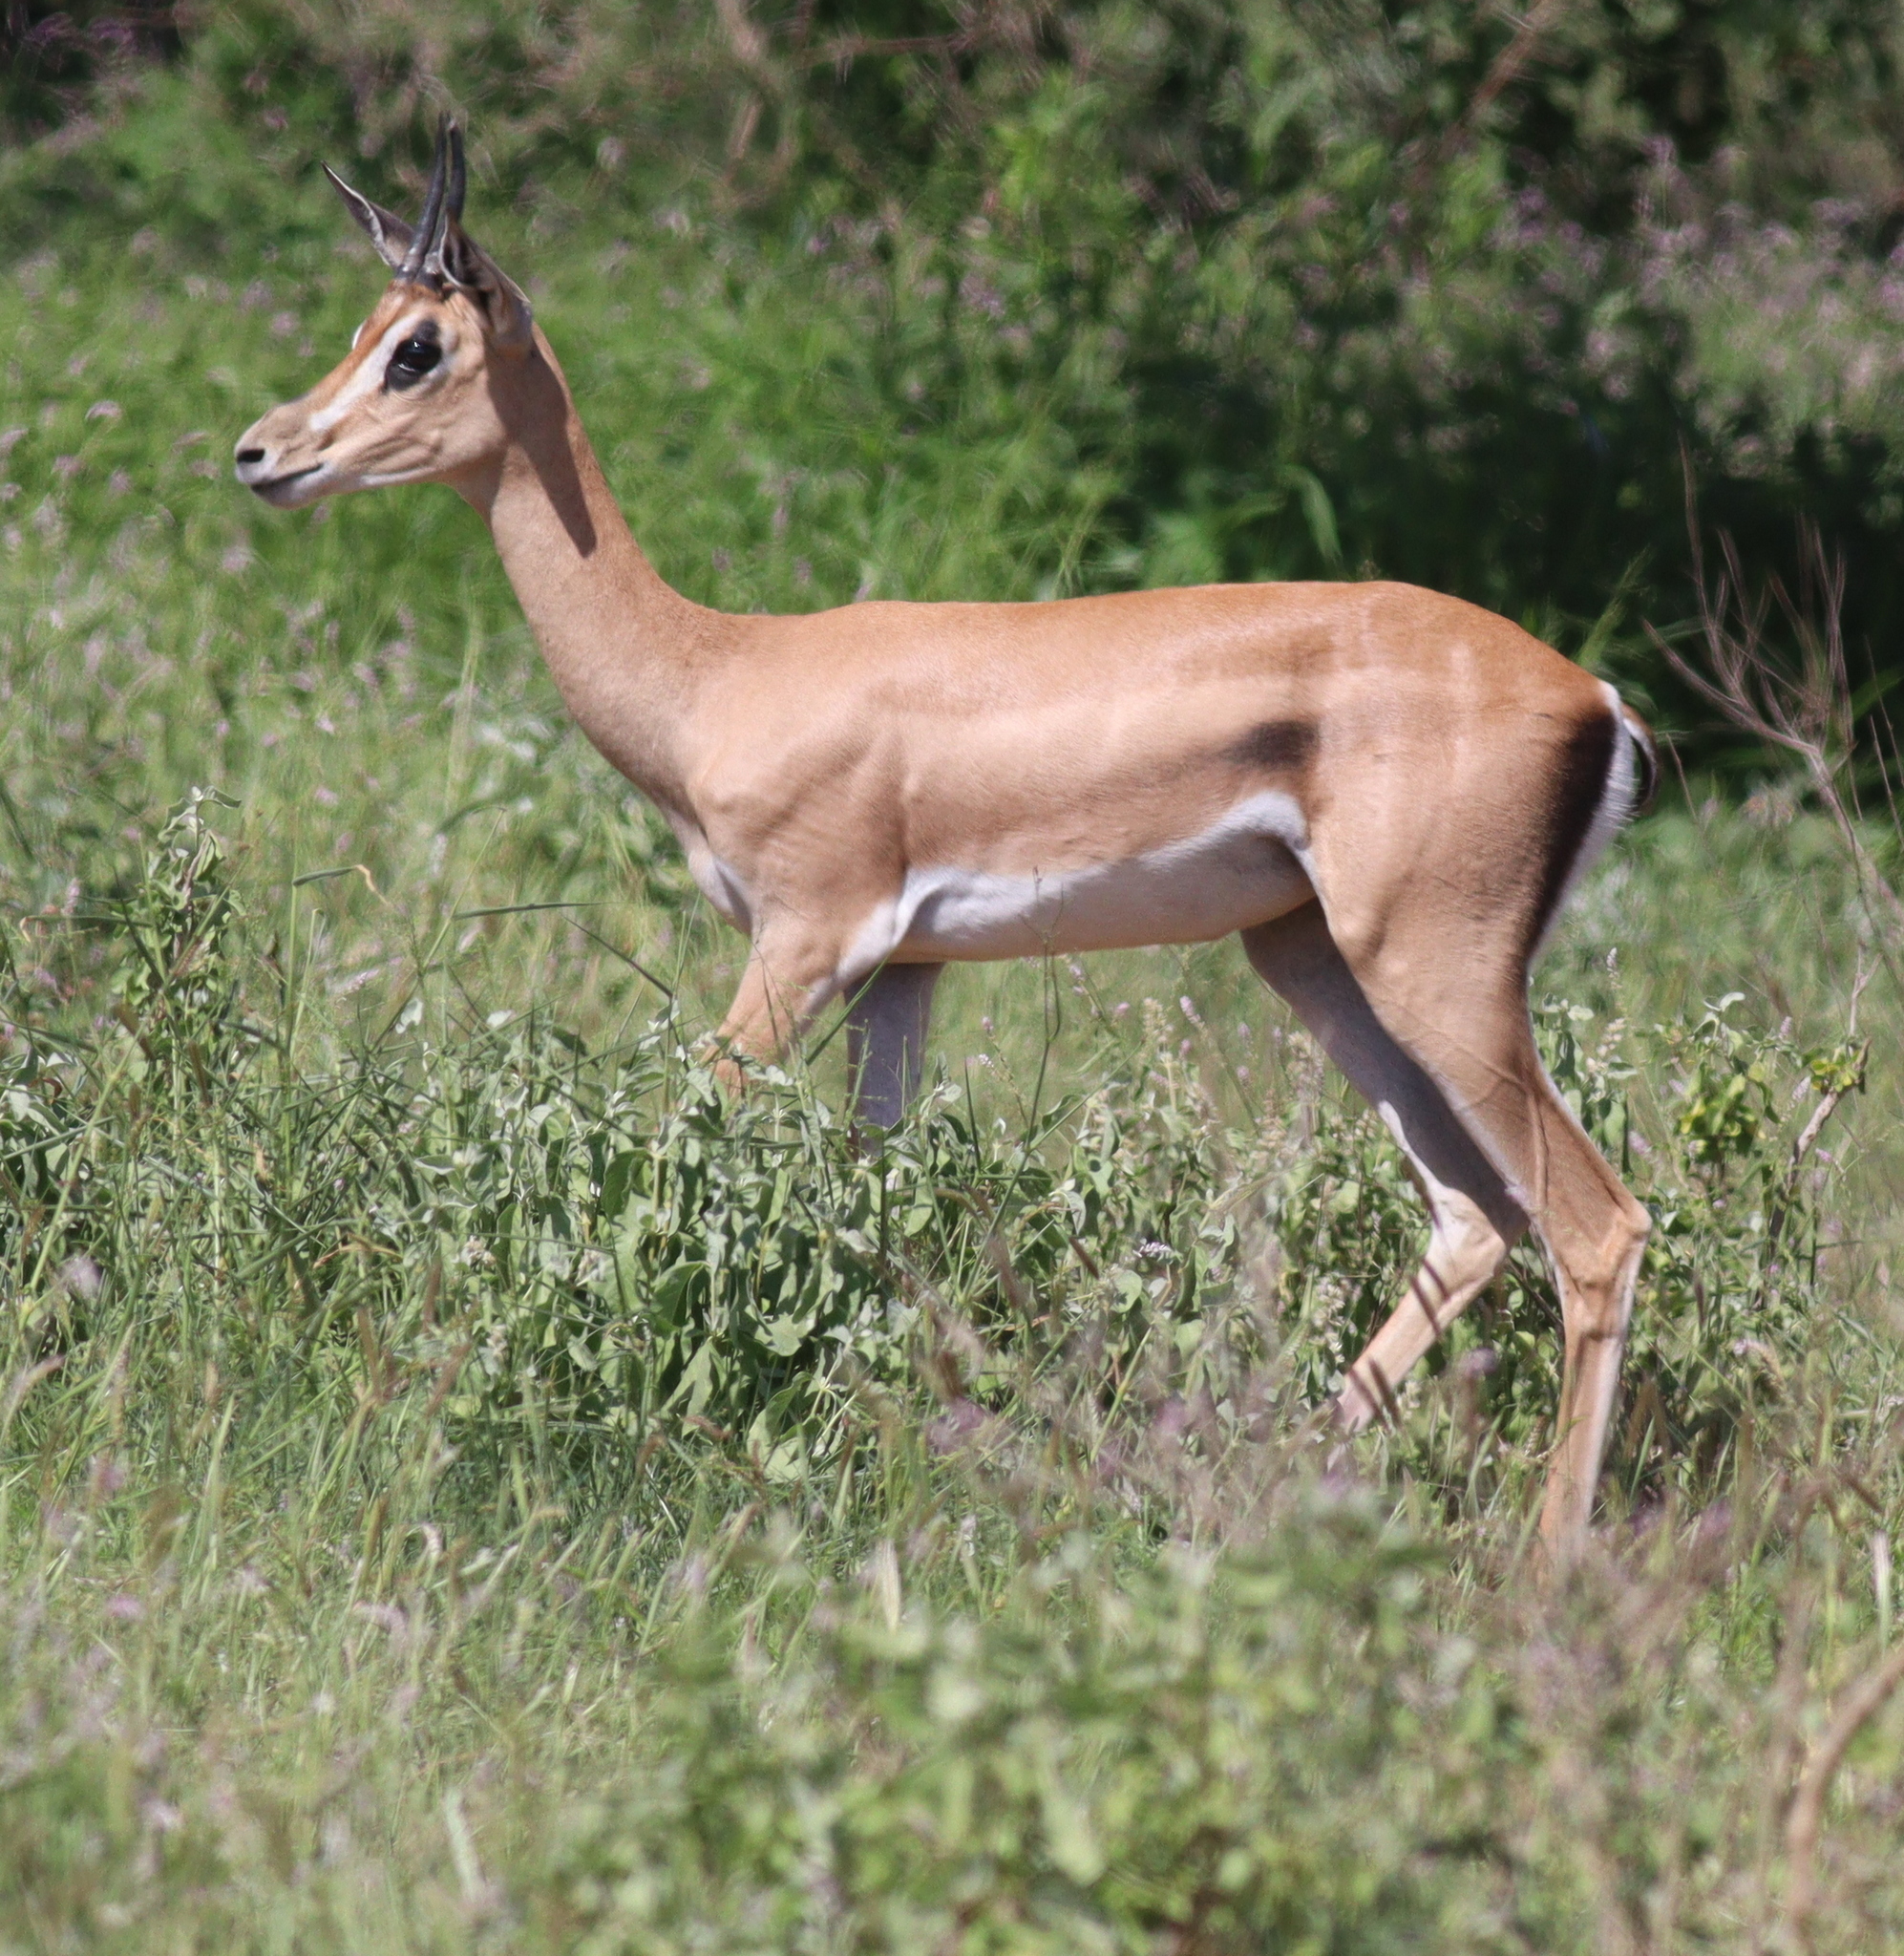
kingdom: Animalia
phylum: Chordata
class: Mammalia
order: Artiodactyla
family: Bovidae
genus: Nanger
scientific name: Nanger granti
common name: Grant's gazelle
